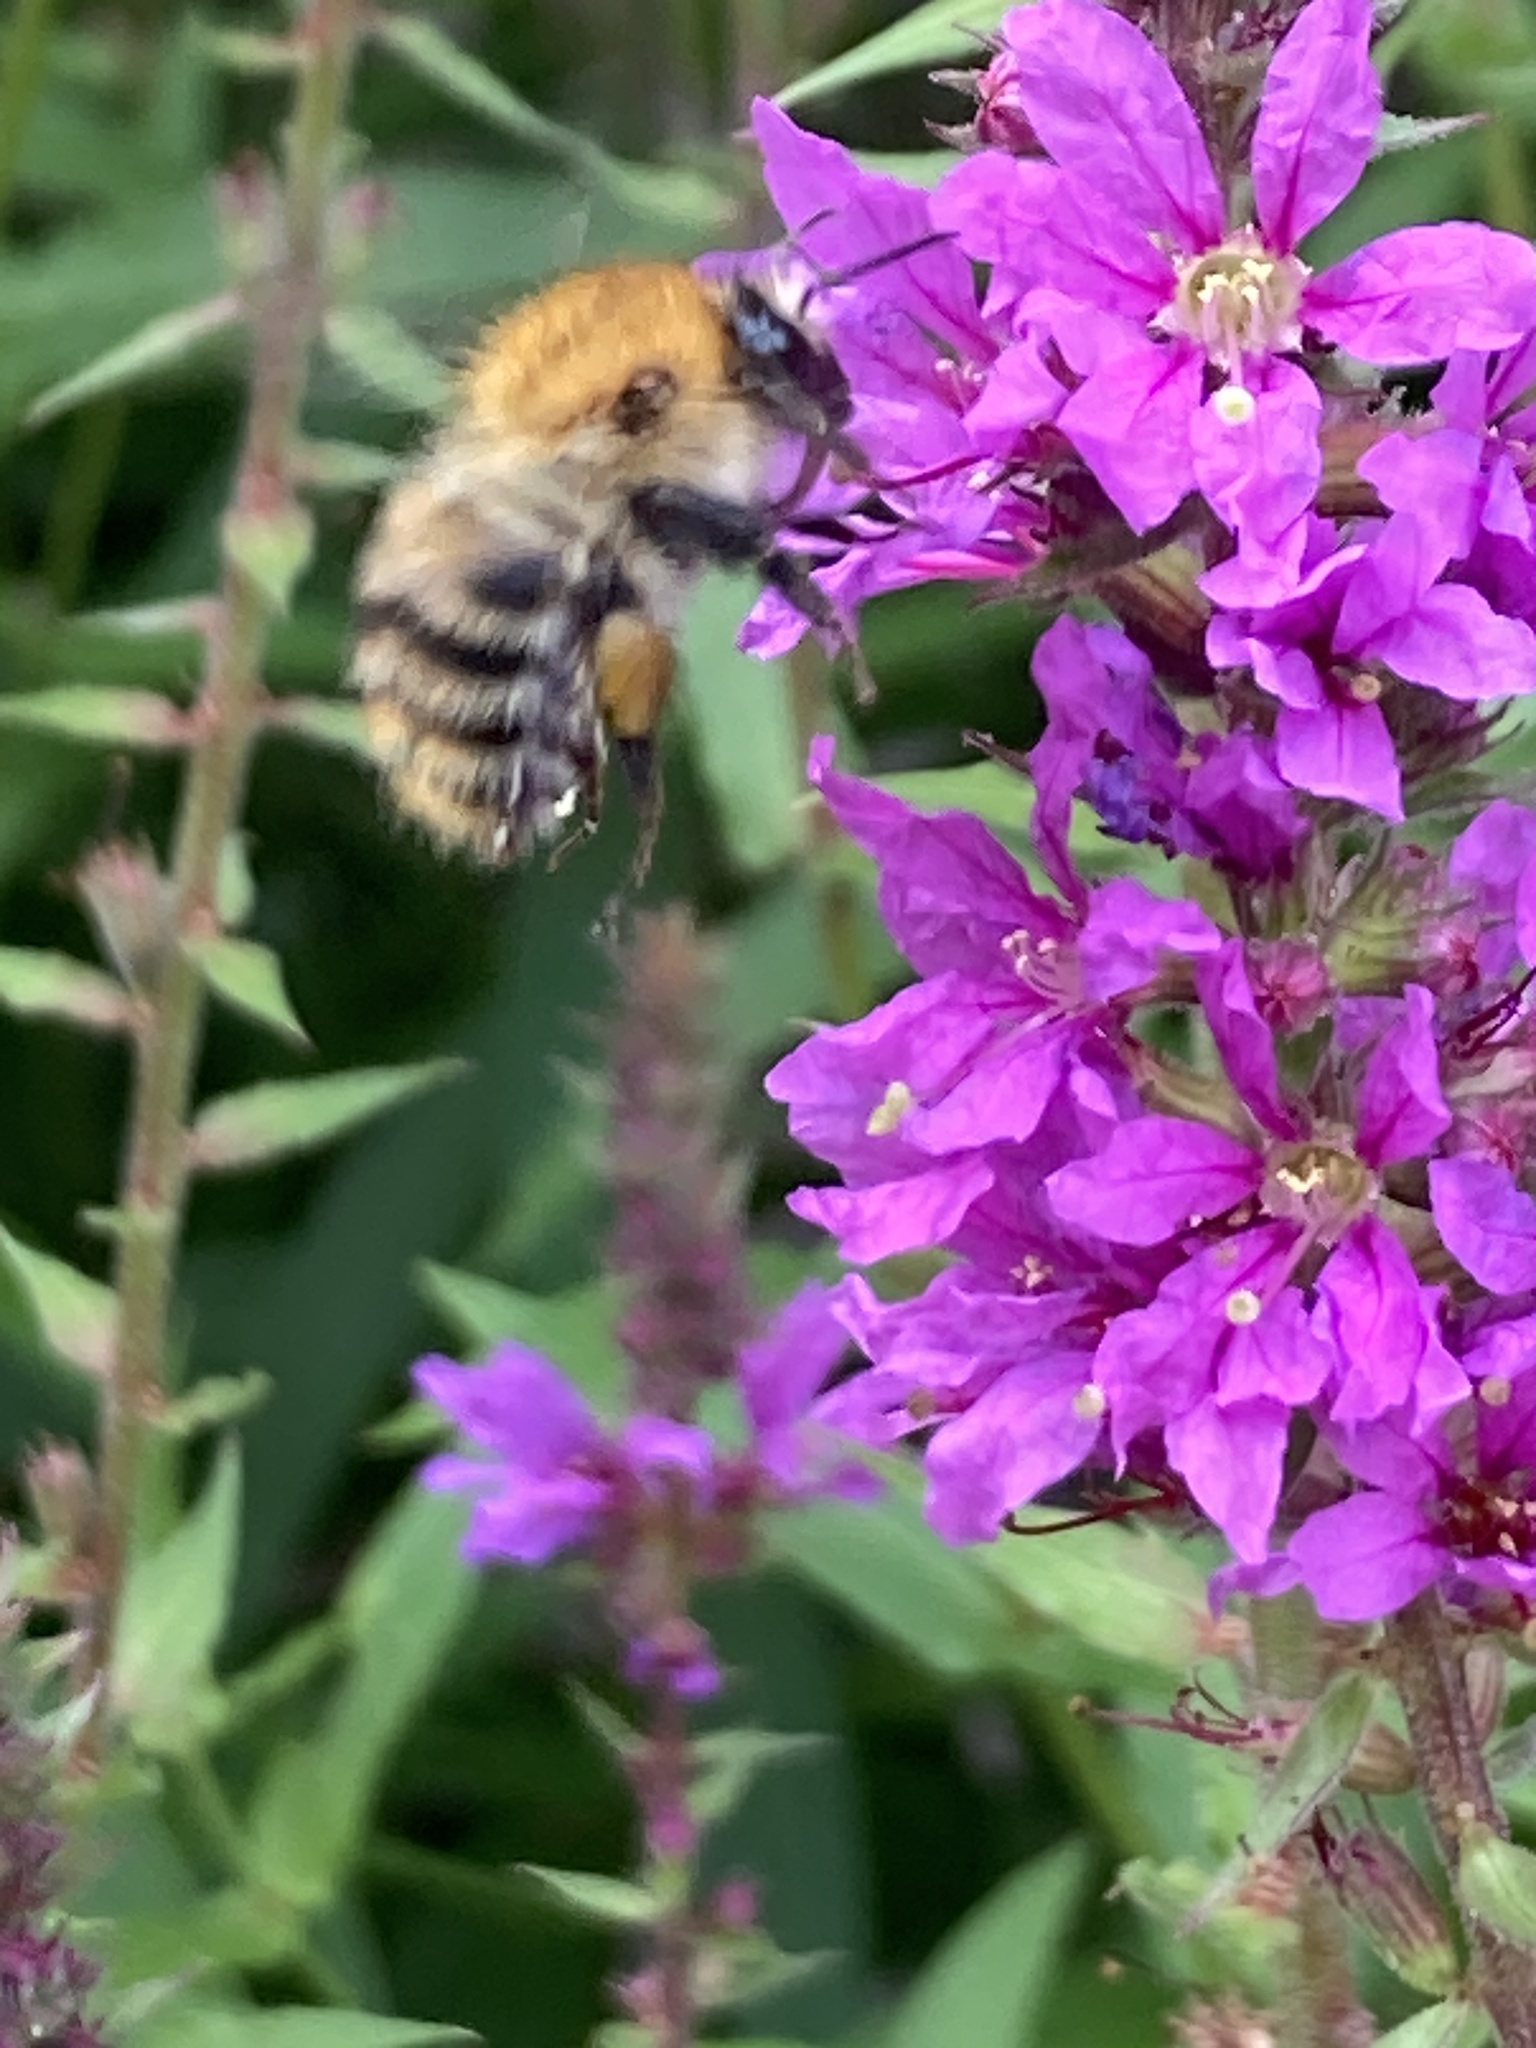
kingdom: Animalia
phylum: Arthropoda
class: Insecta
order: Hymenoptera
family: Apidae
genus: Bombus
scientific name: Bombus pascuorum
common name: Common carder bee
